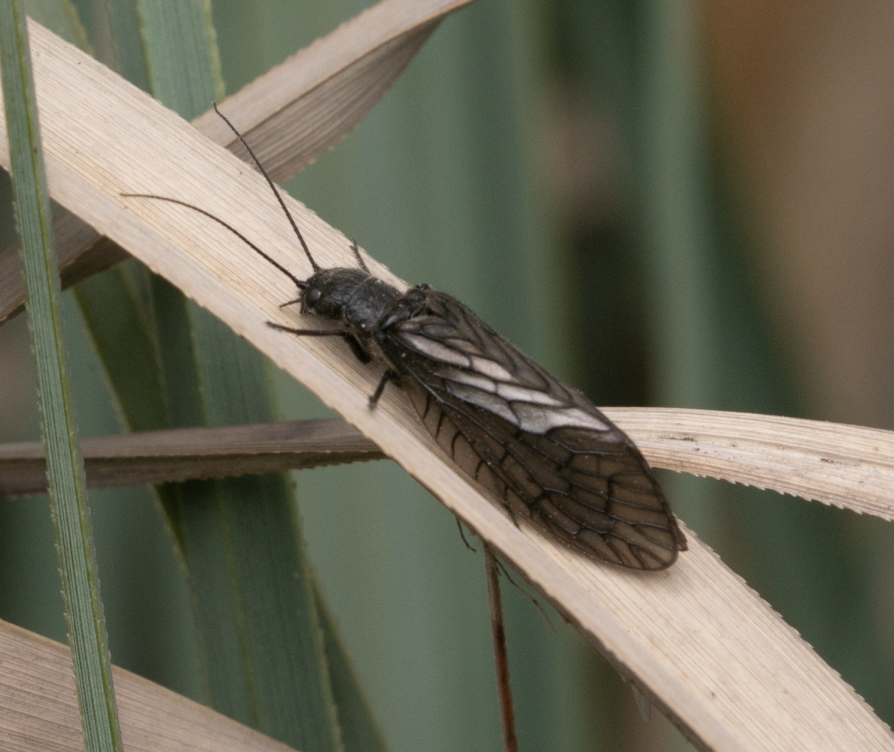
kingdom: Animalia
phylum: Arthropoda
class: Insecta
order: Megaloptera
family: Sialidae
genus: Sialis
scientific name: Sialis
